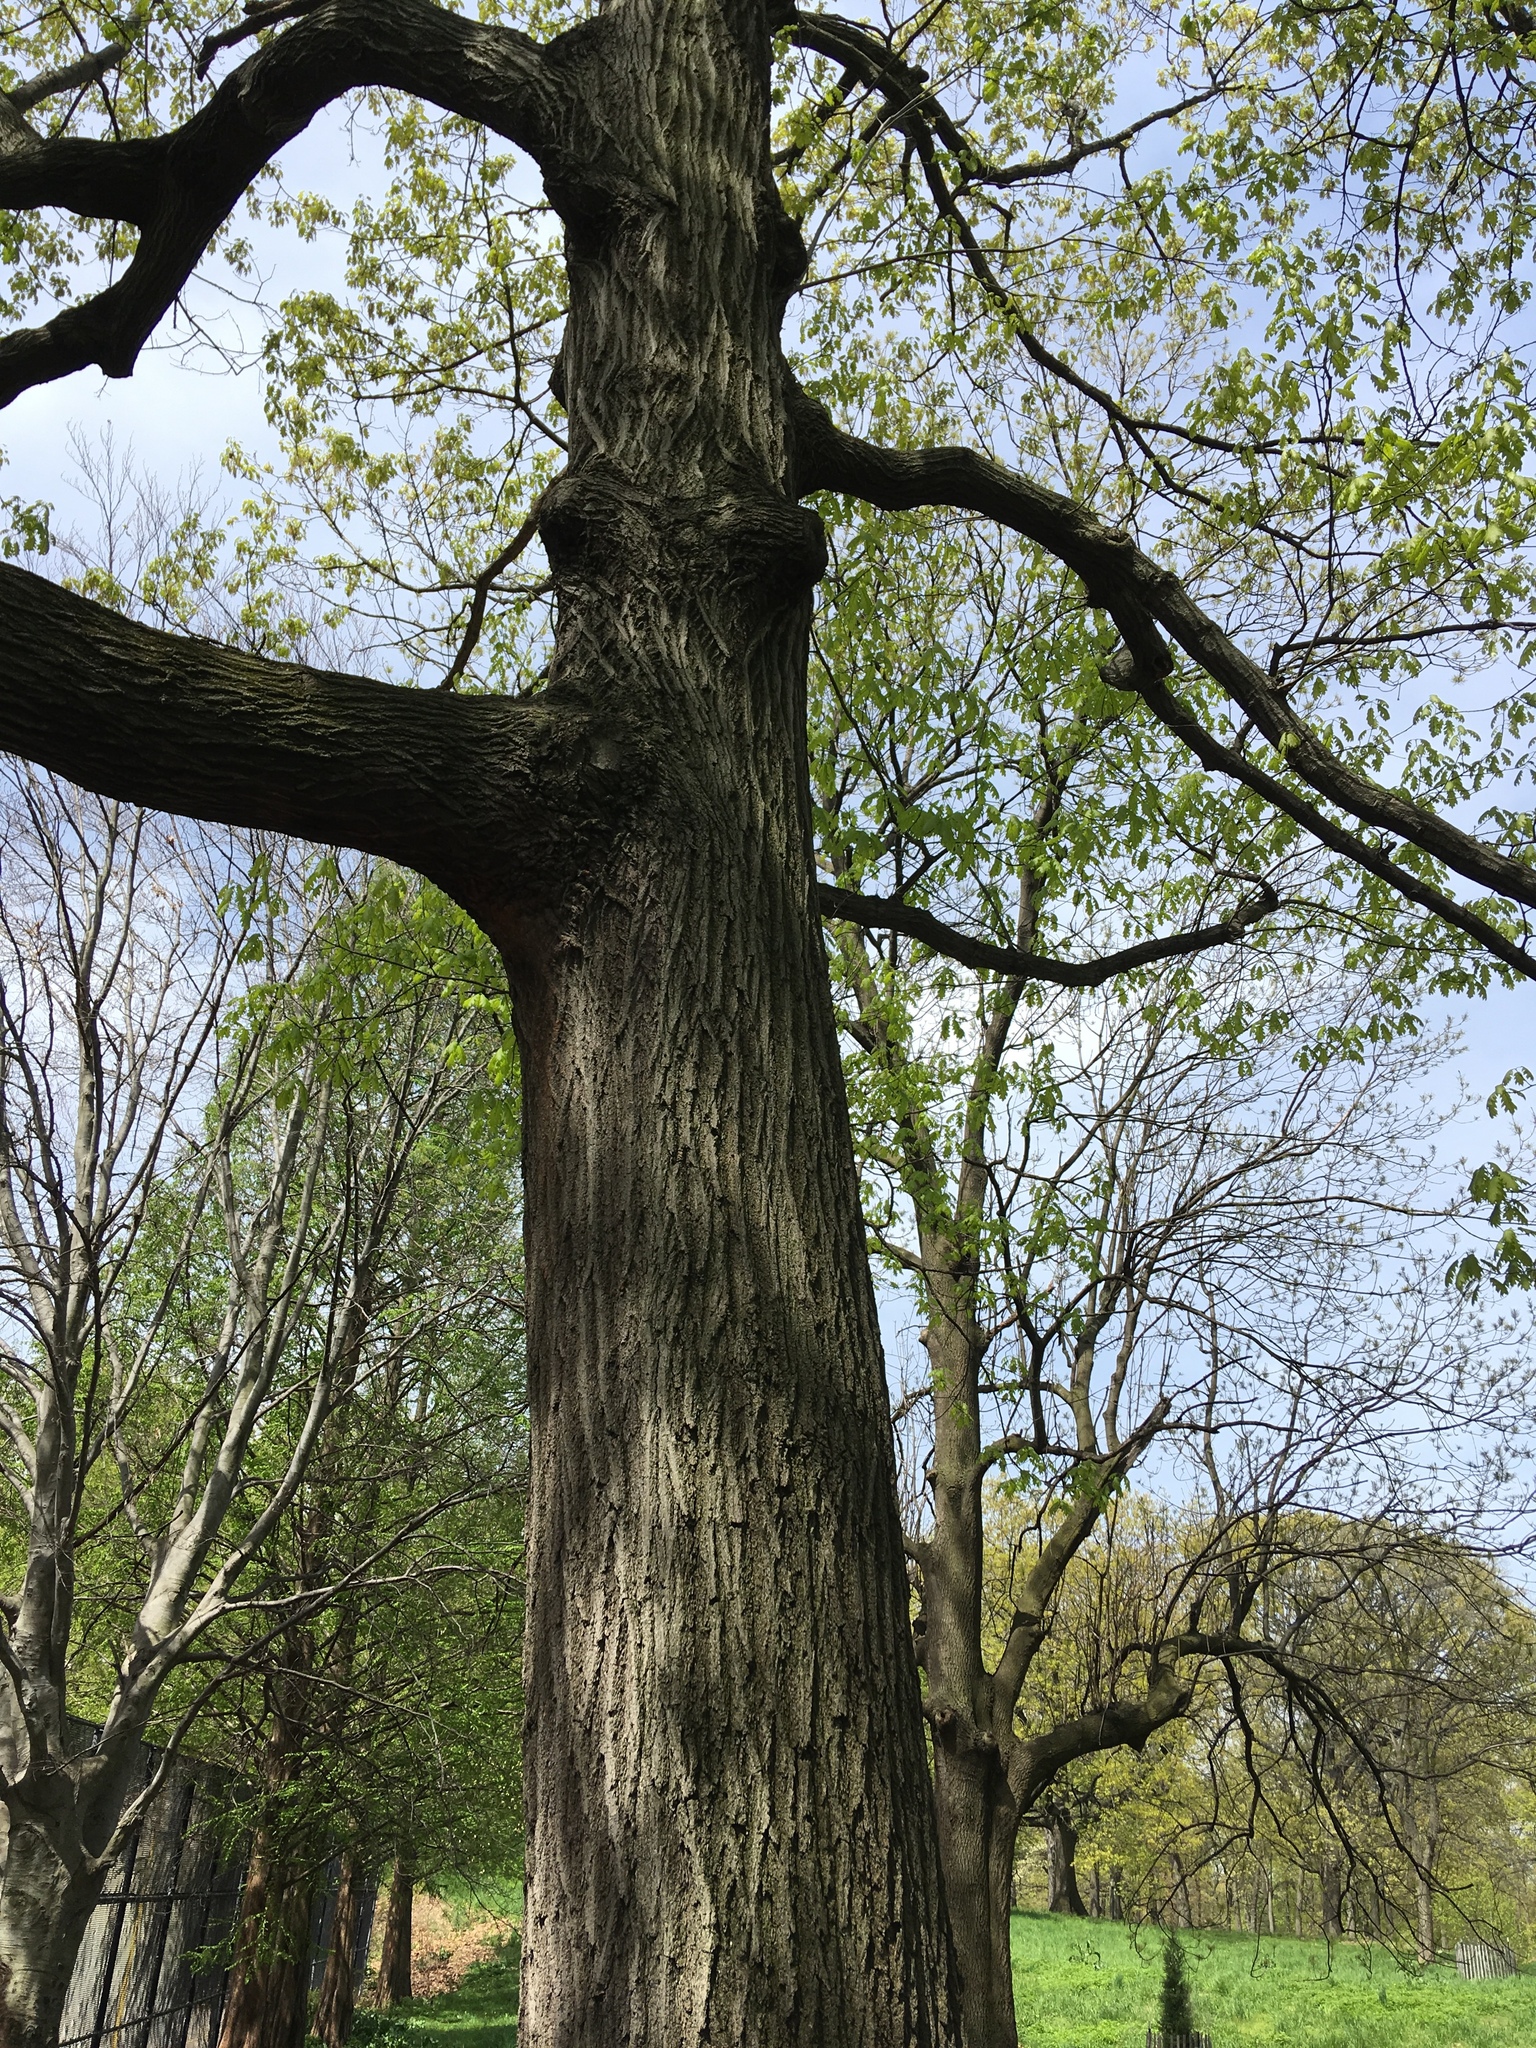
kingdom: Plantae
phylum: Tracheophyta
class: Magnoliopsida
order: Fagales
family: Fagaceae
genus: Quercus
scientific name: Quercus rubra
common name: Red oak
